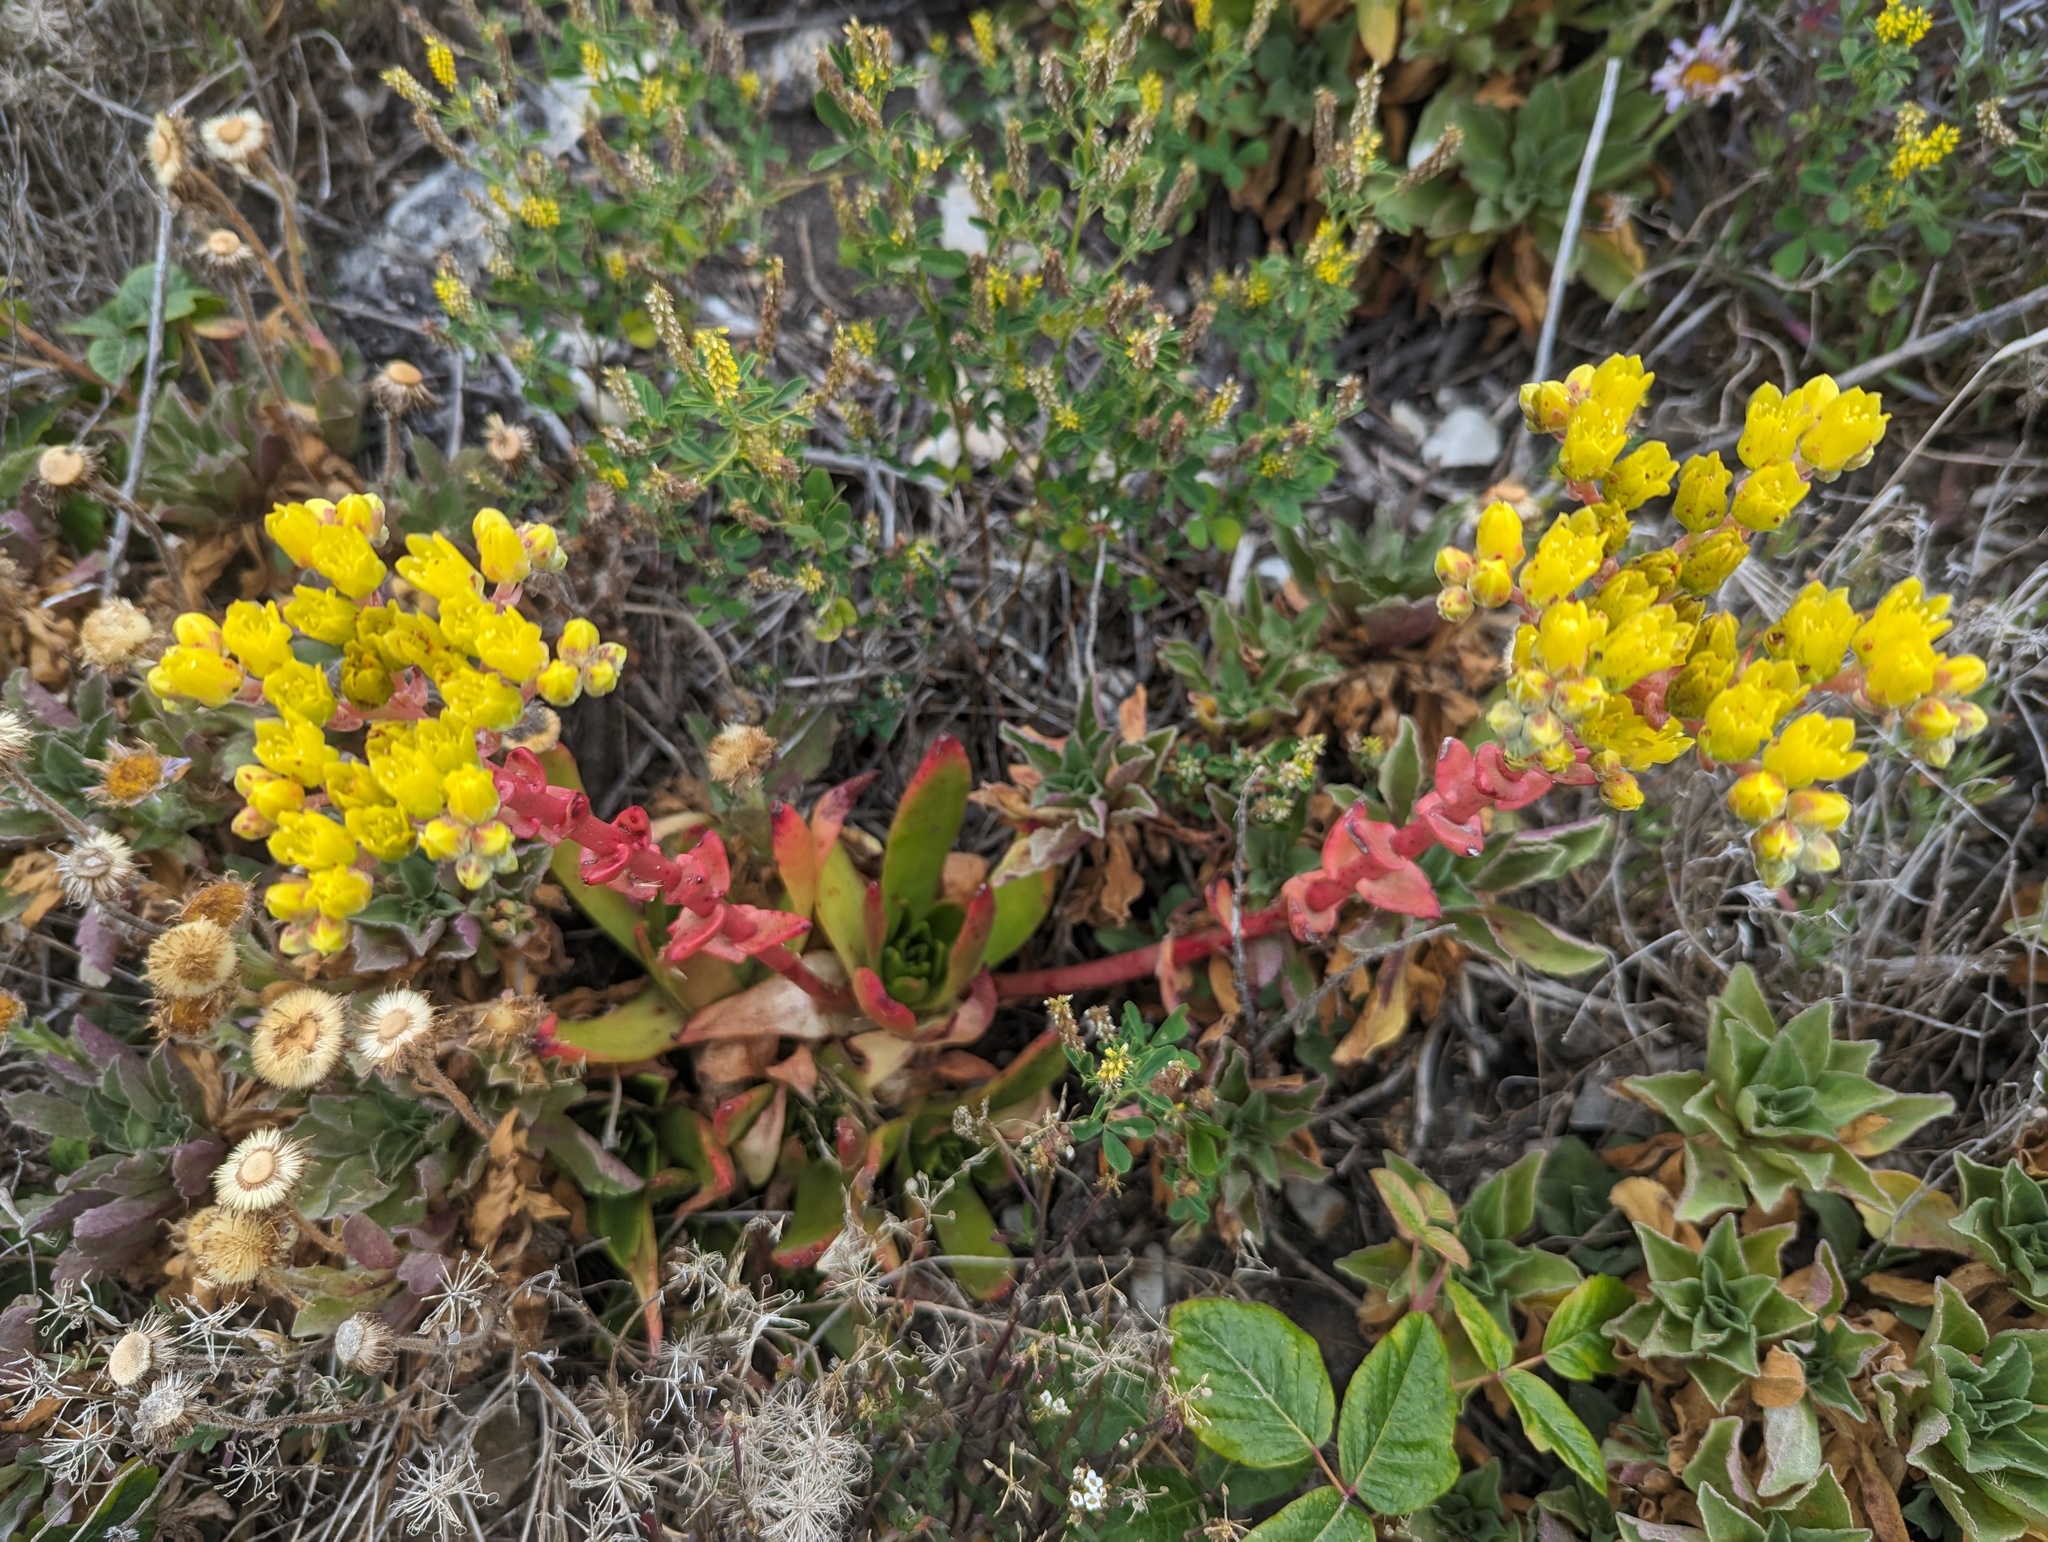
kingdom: Plantae
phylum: Tracheophyta
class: Magnoliopsida
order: Saxifragales
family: Crassulaceae
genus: Dudleya
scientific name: Dudleya caespitosa
